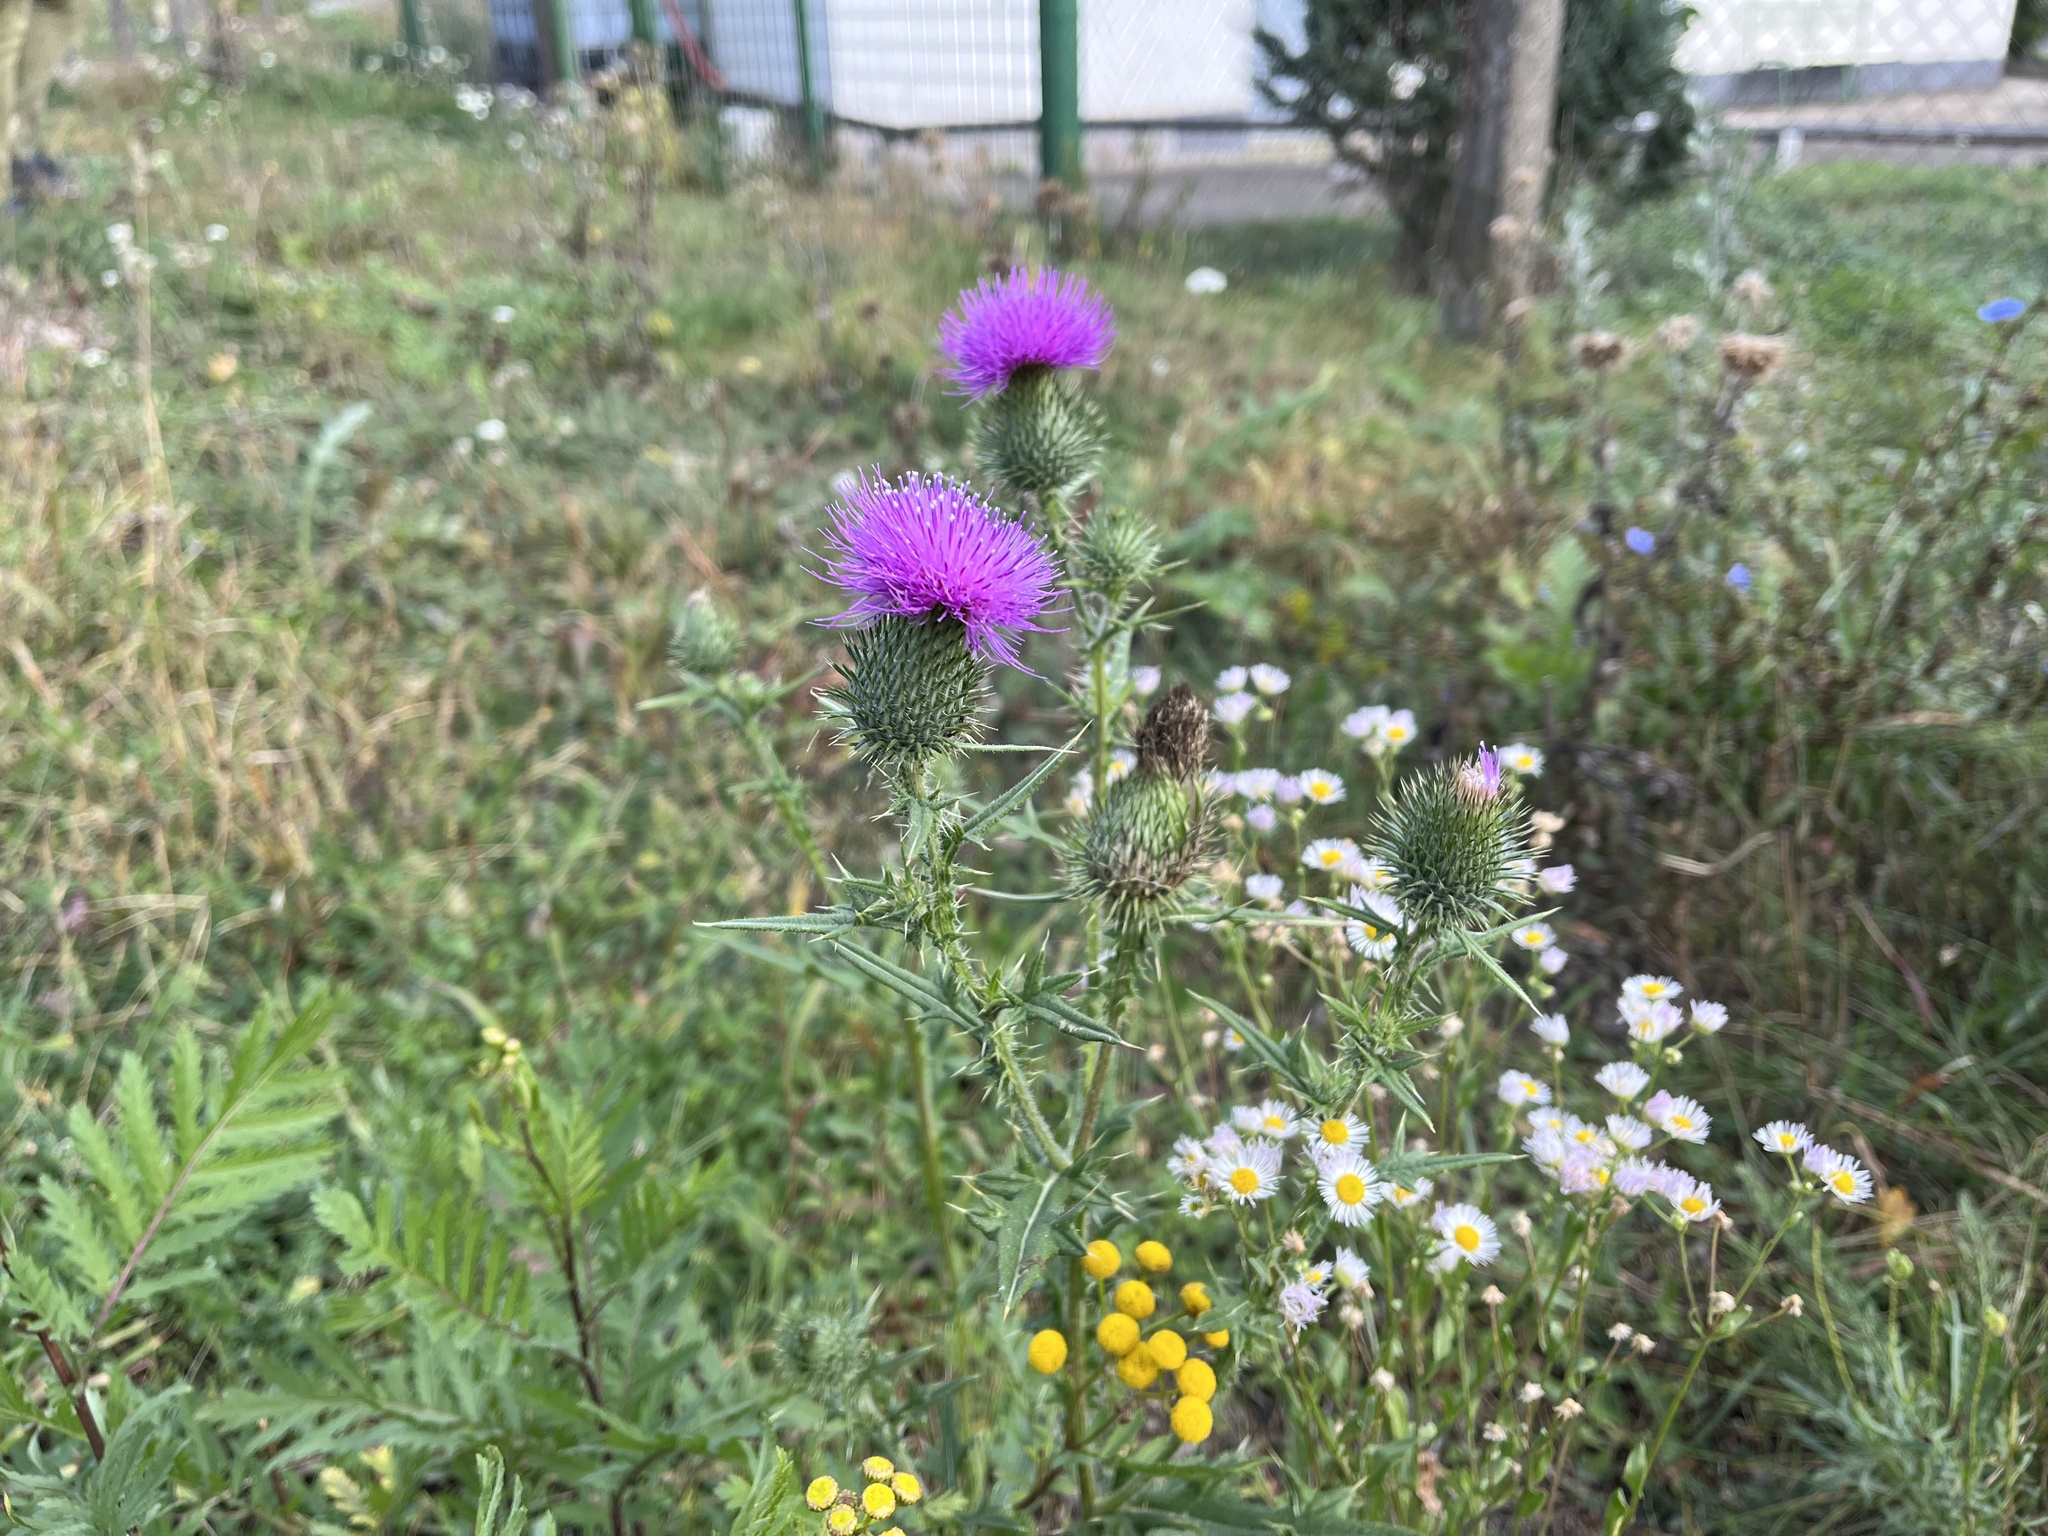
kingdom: Plantae
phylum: Tracheophyta
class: Magnoliopsida
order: Asterales
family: Asteraceae
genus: Cirsium
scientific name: Cirsium vulgare
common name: Bull thistle
